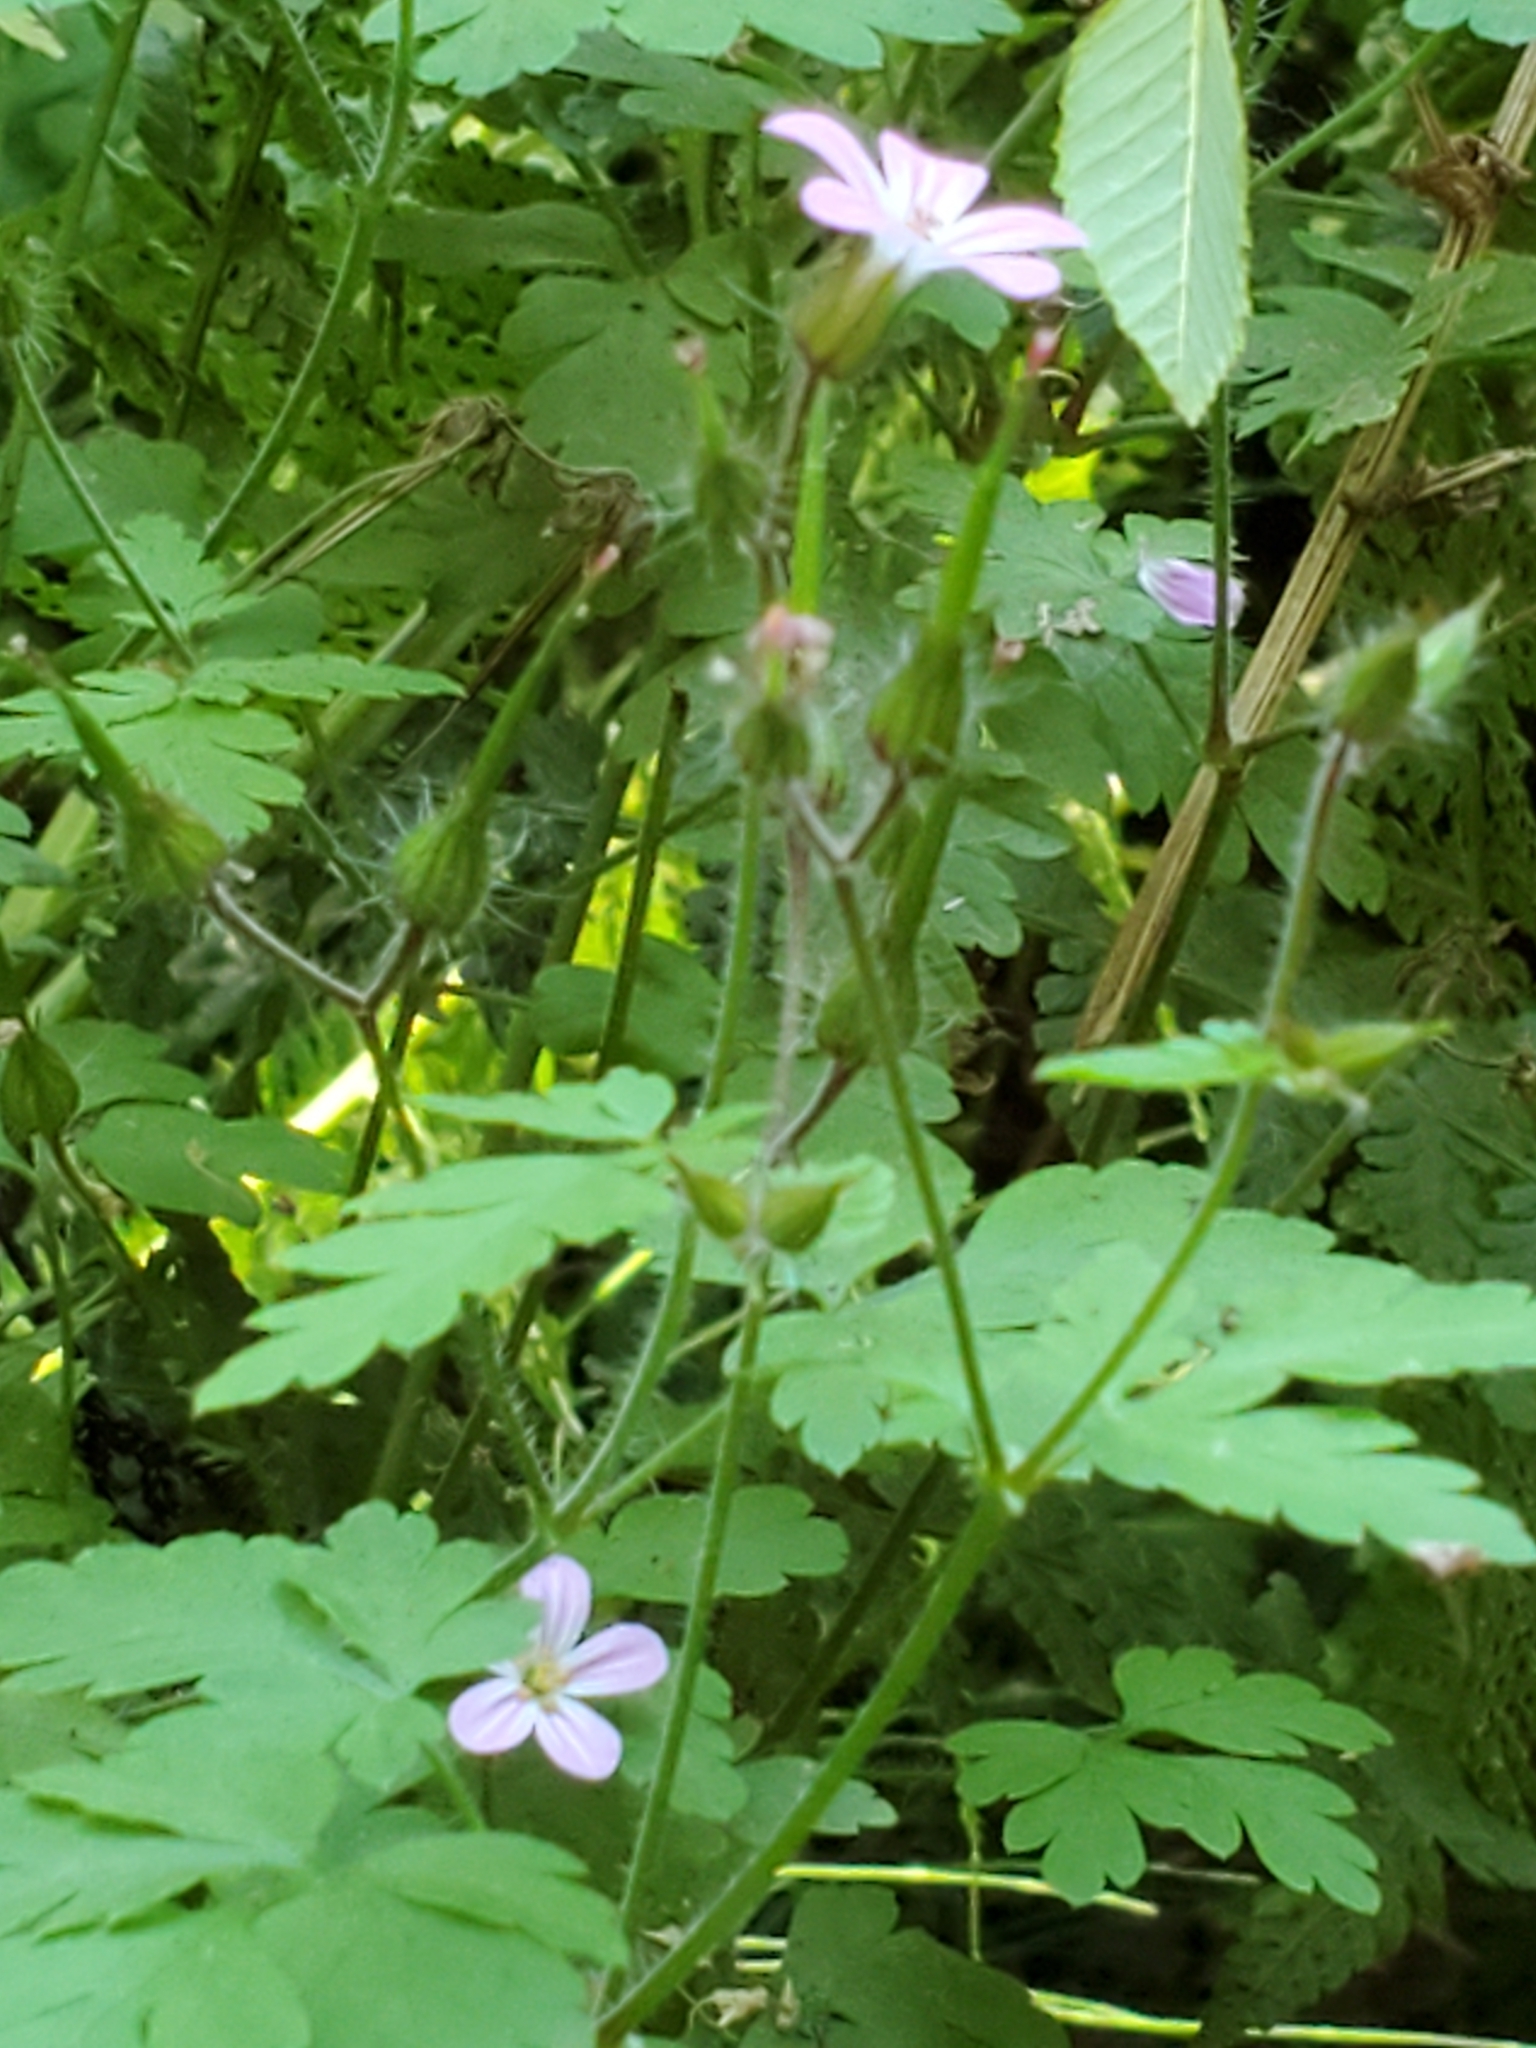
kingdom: Plantae
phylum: Tracheophyta
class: Magnoliopsida
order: Geraniales
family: Geraniaceae
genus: Geranium
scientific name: Geranium robertianum
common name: Herb-robert
